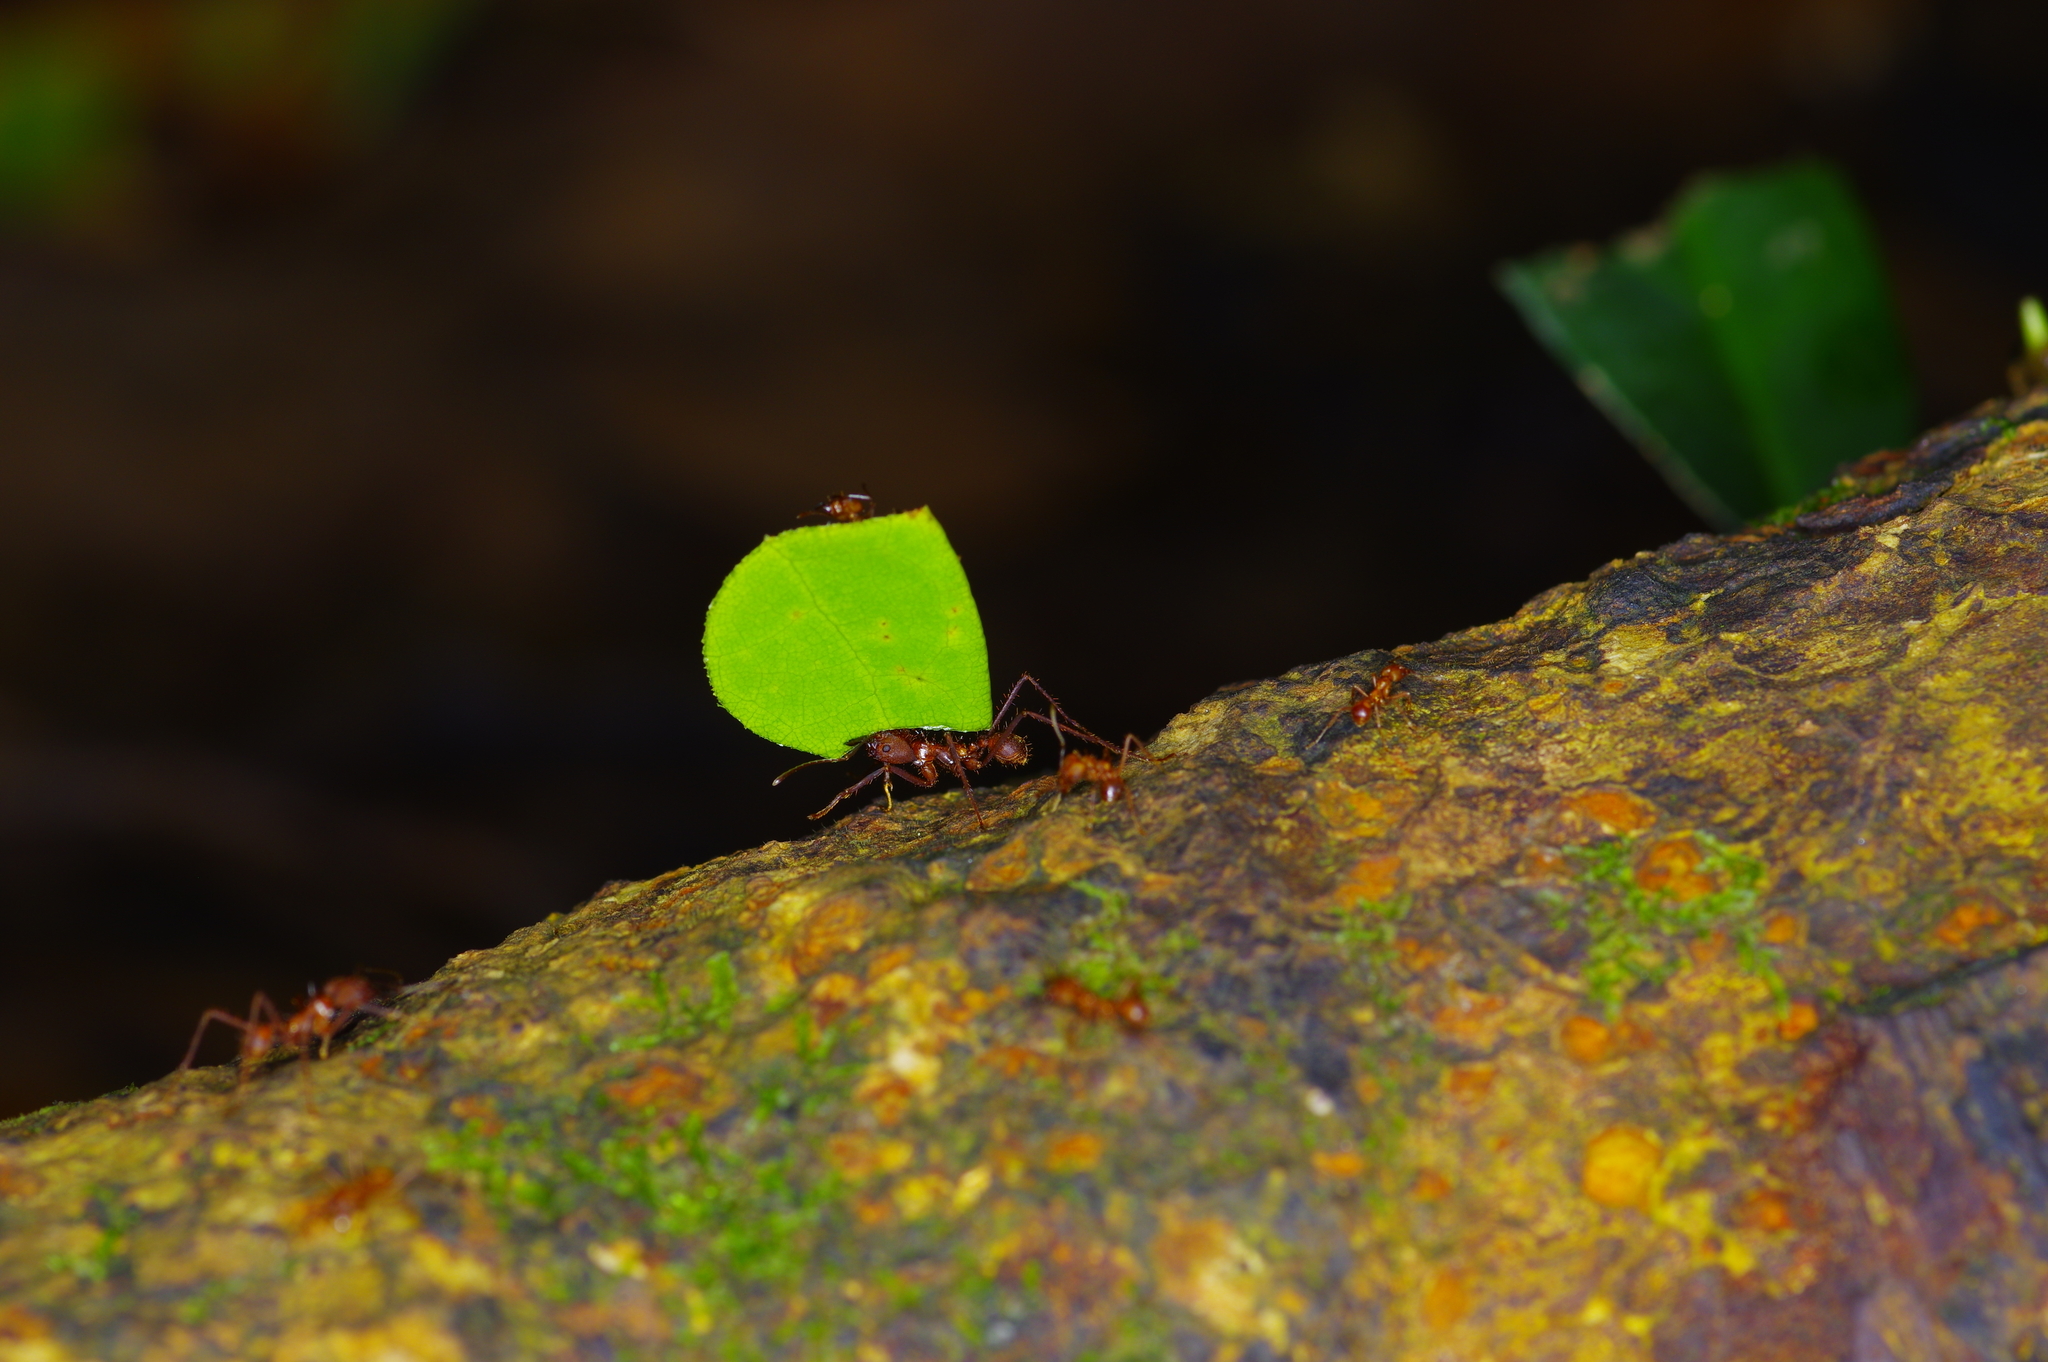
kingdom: Animalia
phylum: Arthropoda
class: Insecta
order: Hymenoptera
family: Formicidae
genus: Atta
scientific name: Atta cephalotes
